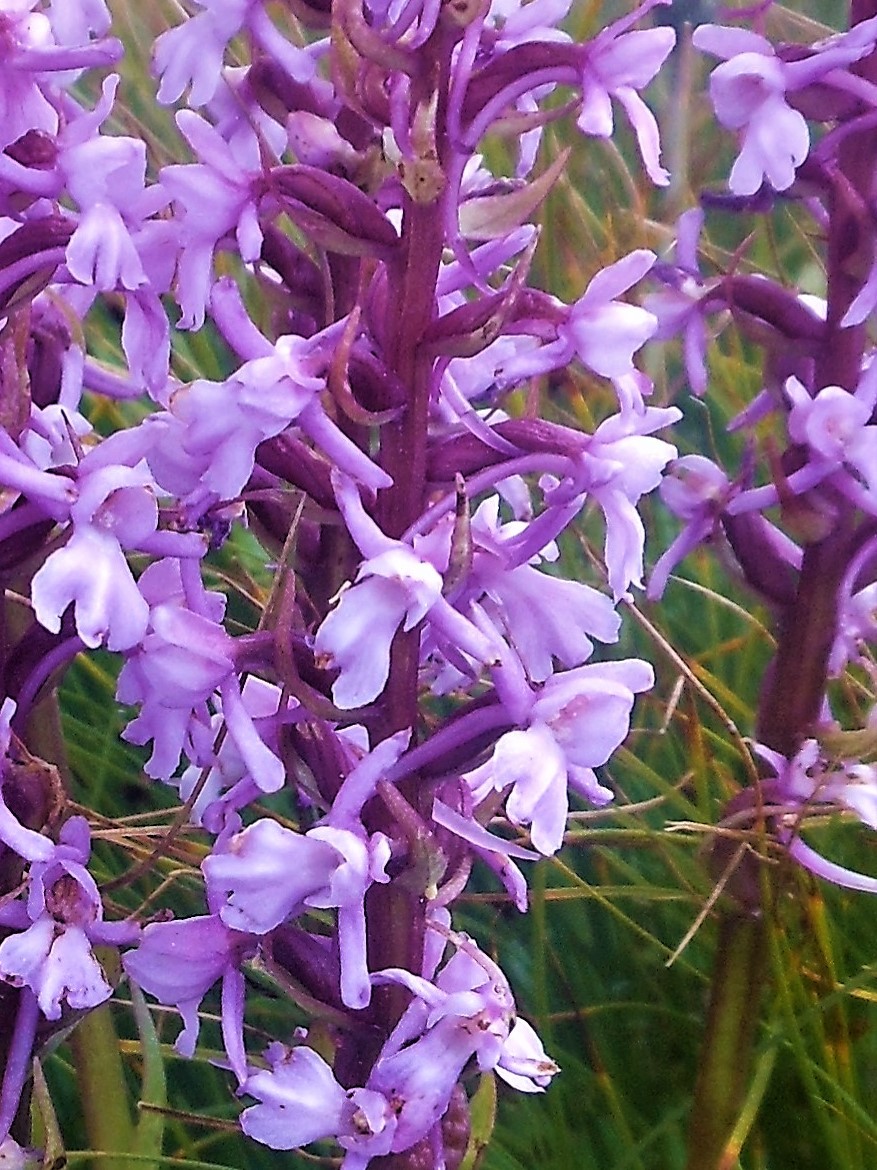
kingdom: Plantae
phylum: Tracheophyta
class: Liliopsida
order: Asparagales
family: Orchidaceae
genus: Gymnadenia
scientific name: Gymnadenia conopsea
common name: Fragrant orchid
